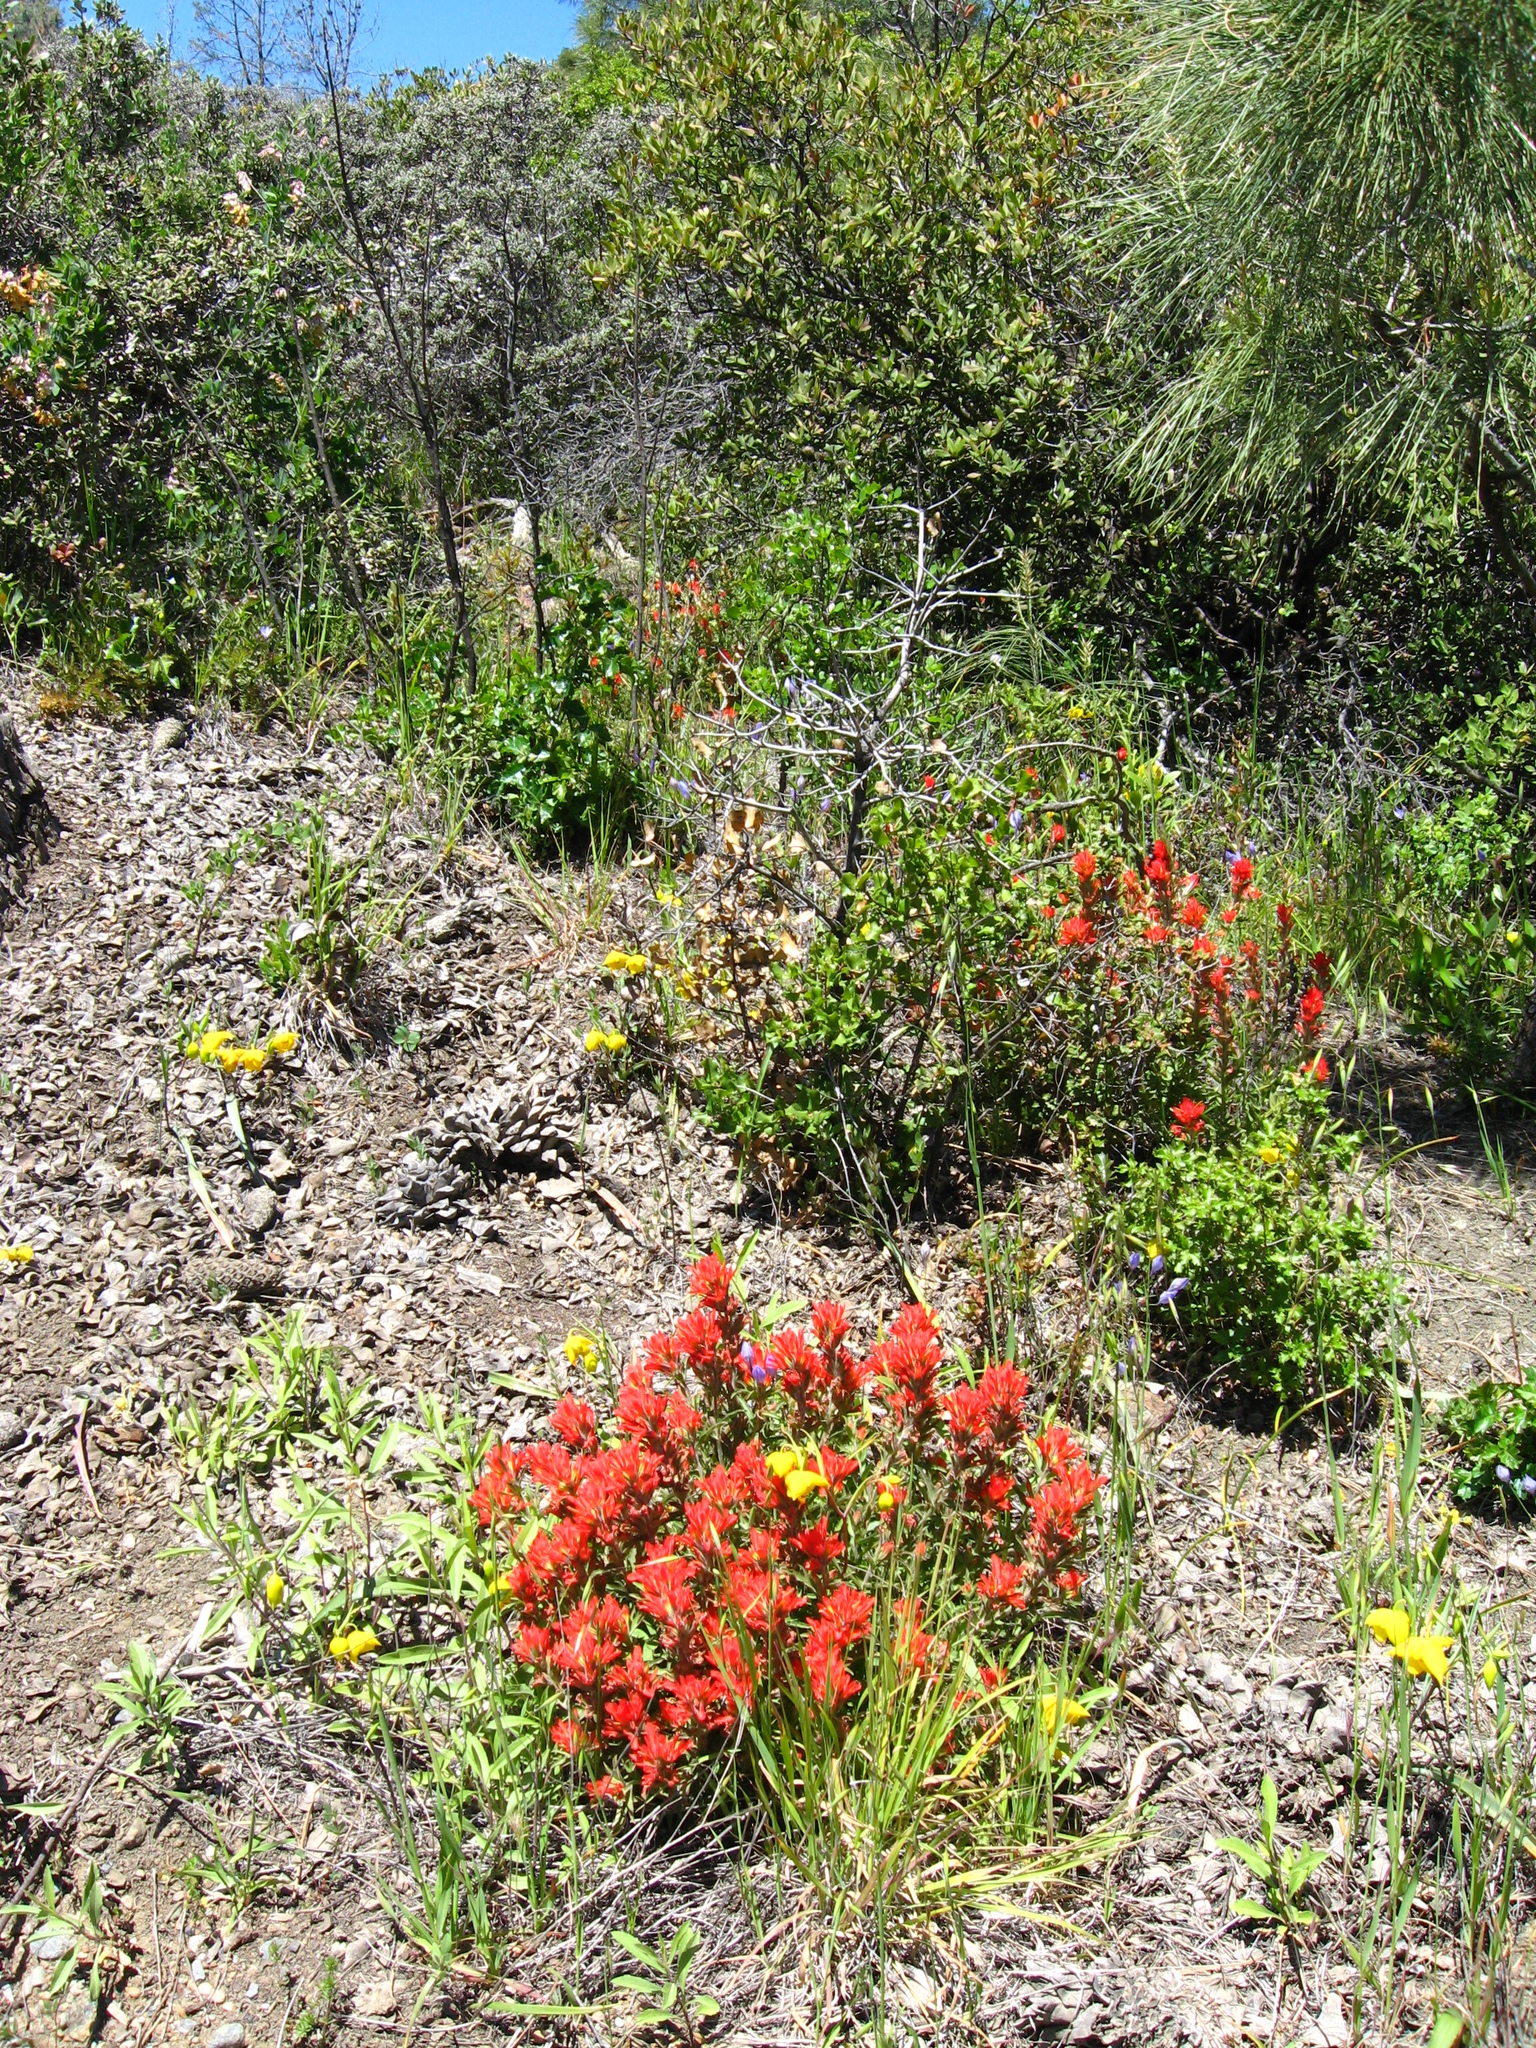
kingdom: Plantae
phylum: Tracheophyta
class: Magnoliopsida
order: Lamiales
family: Orobanchaceae
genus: Castilleja
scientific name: Castilleja martini
